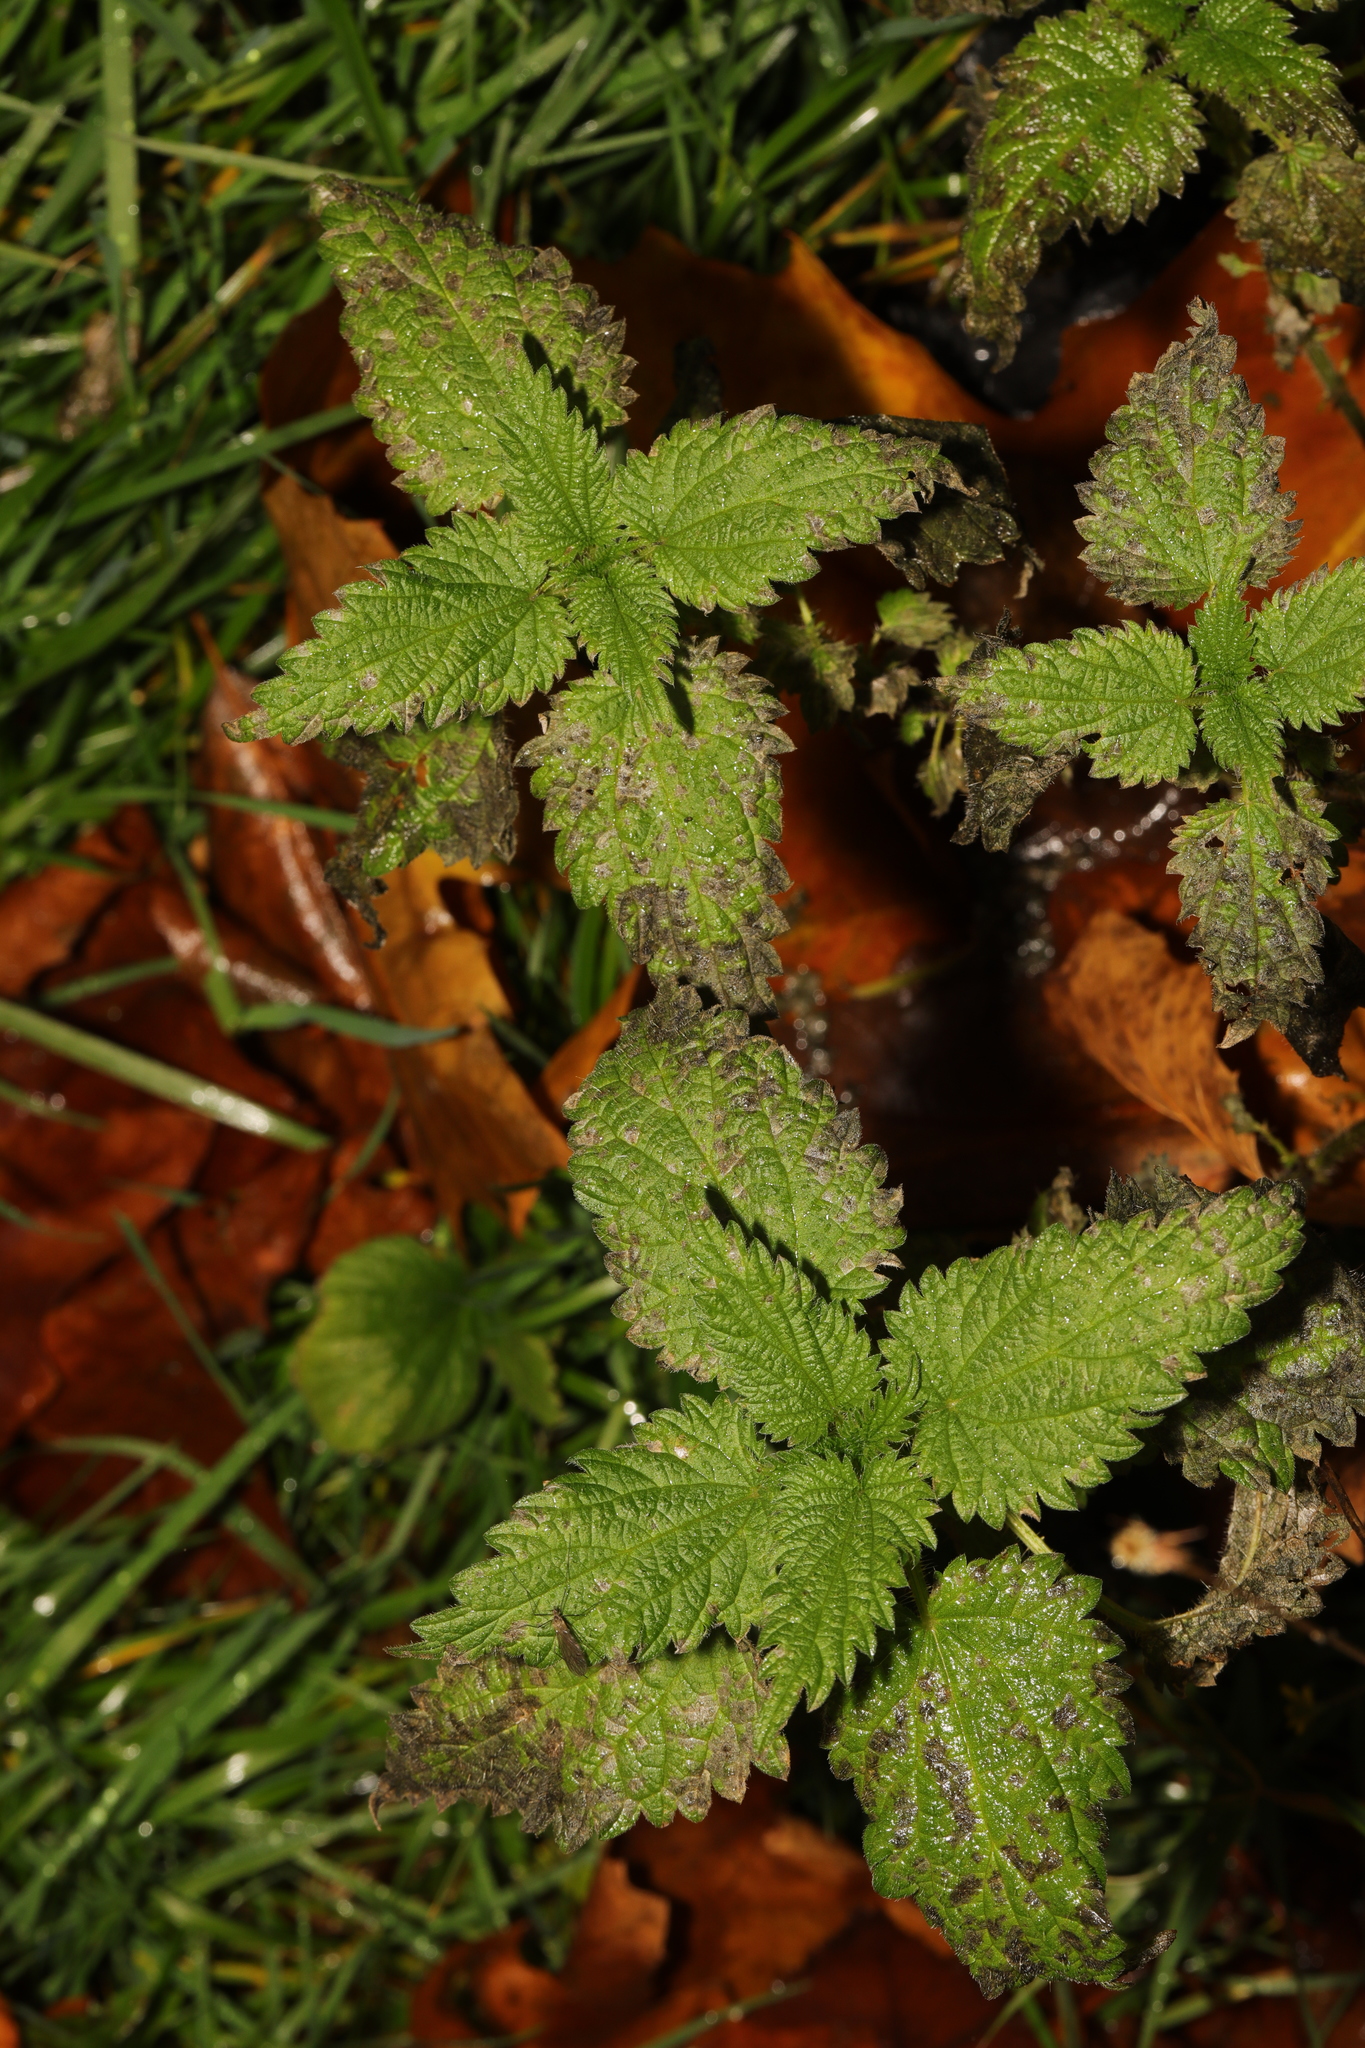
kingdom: Plantae
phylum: Tracheophyta
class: Magnoliopsida
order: Rosales
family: Urticaceae
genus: Urtica
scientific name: Urtica dioica
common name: Common nettle
